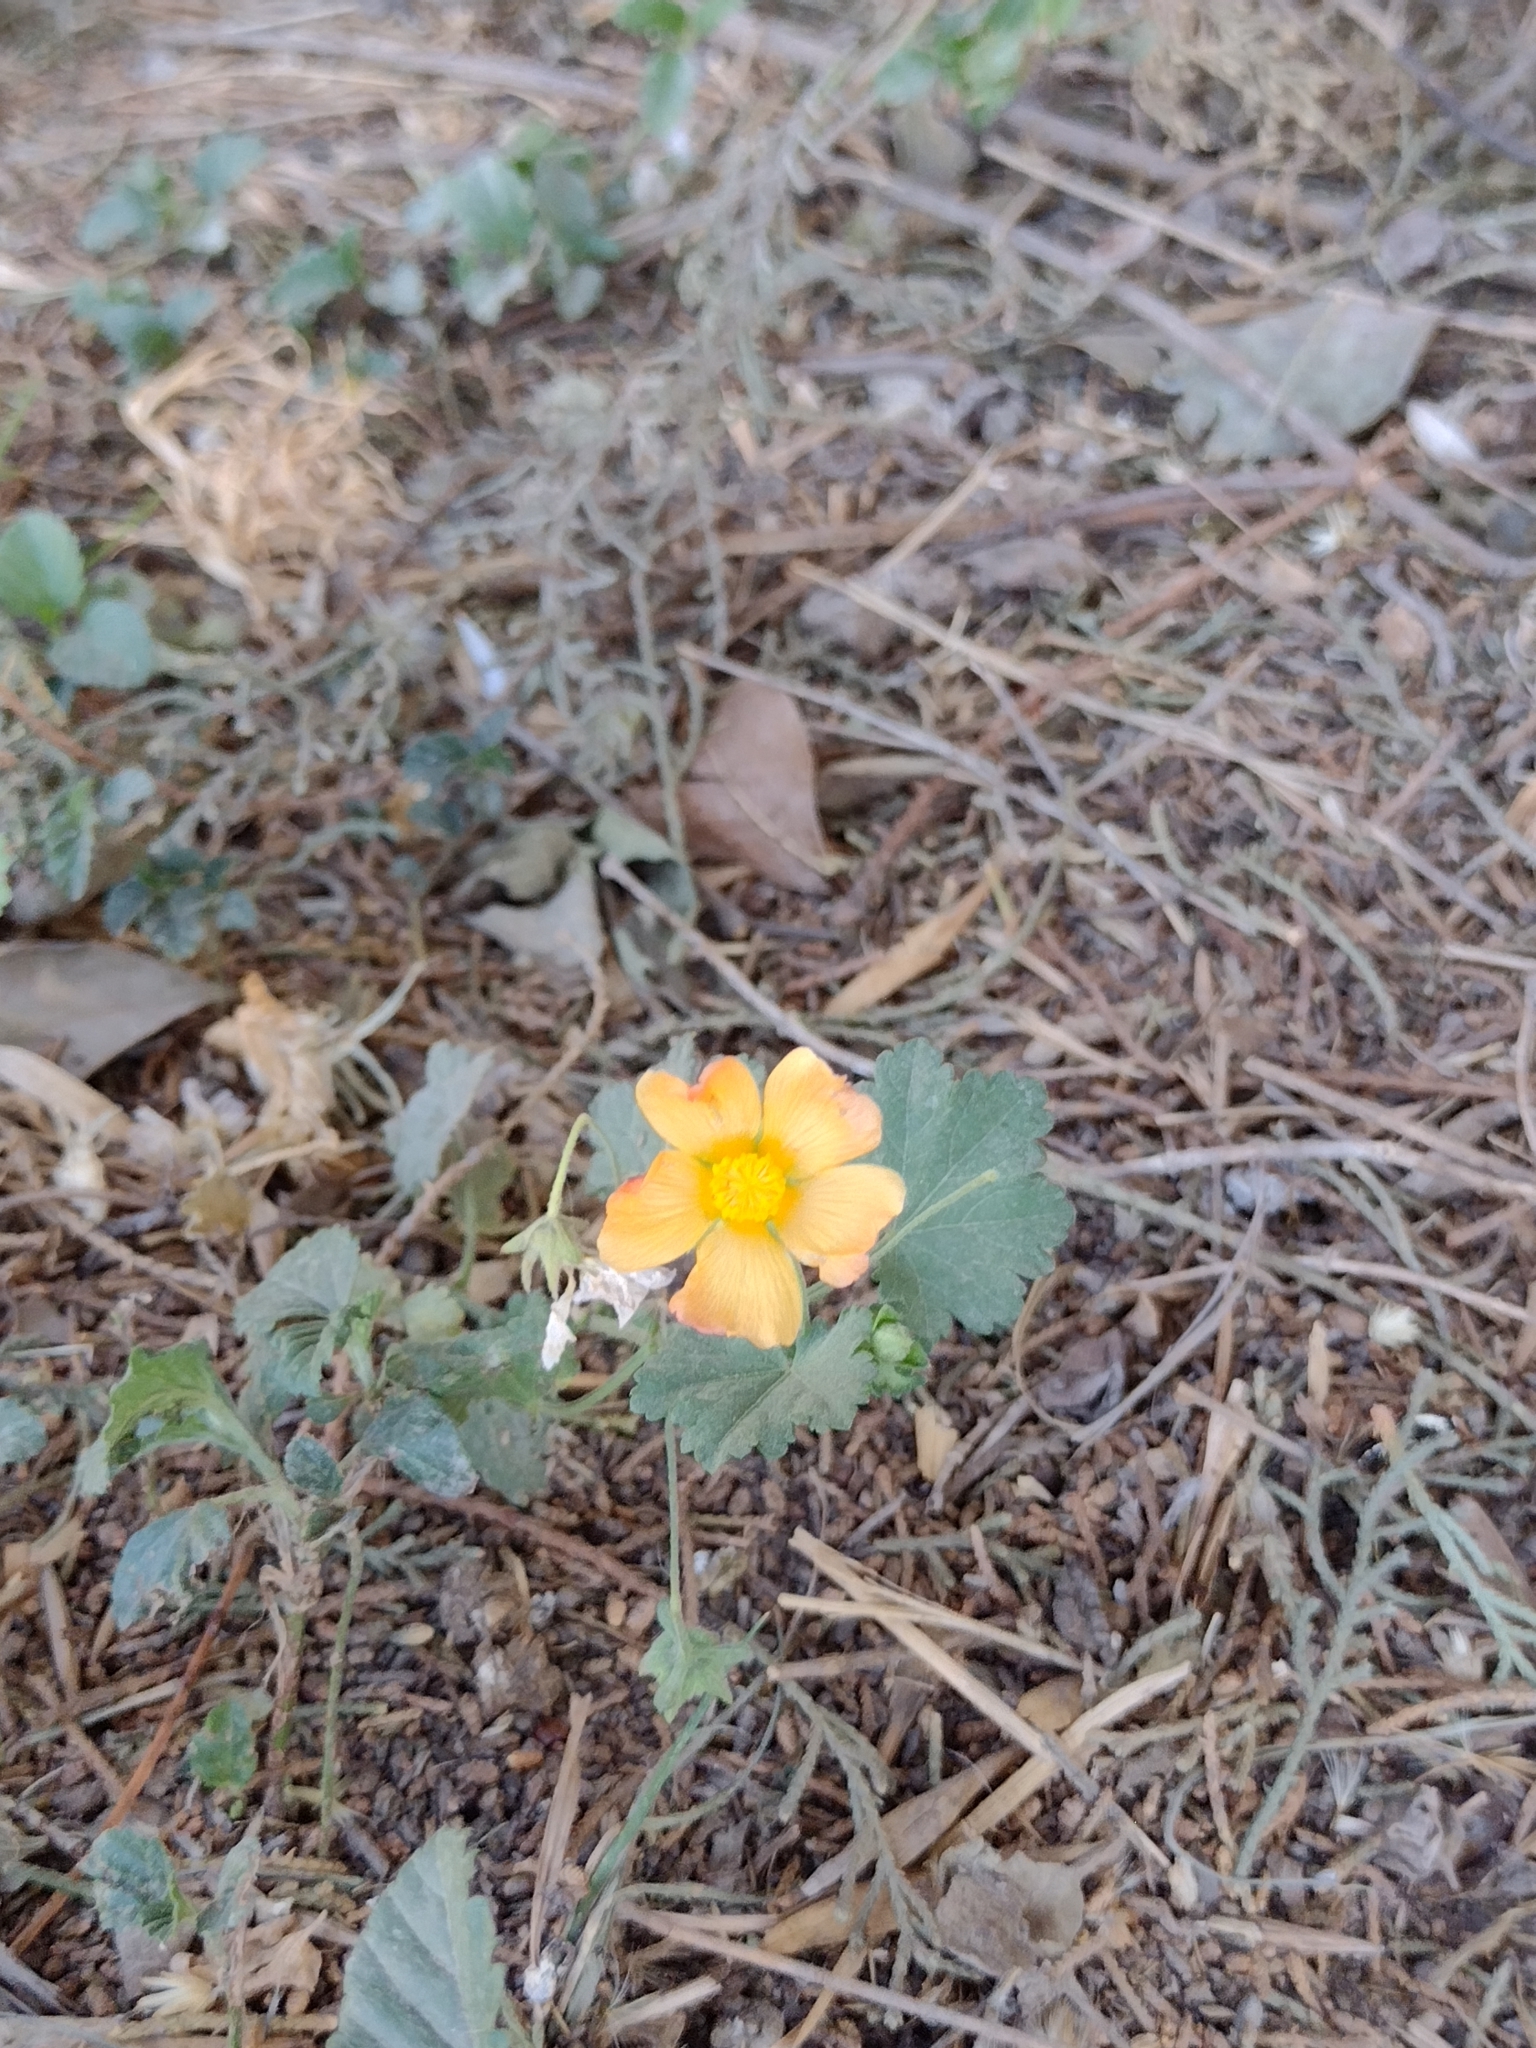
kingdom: Plantae
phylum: Tracheophyta
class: Magnoliopsida
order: Malvales
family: Malvaceae
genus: Modiolastrum
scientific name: Modiolastrum malvifolium
